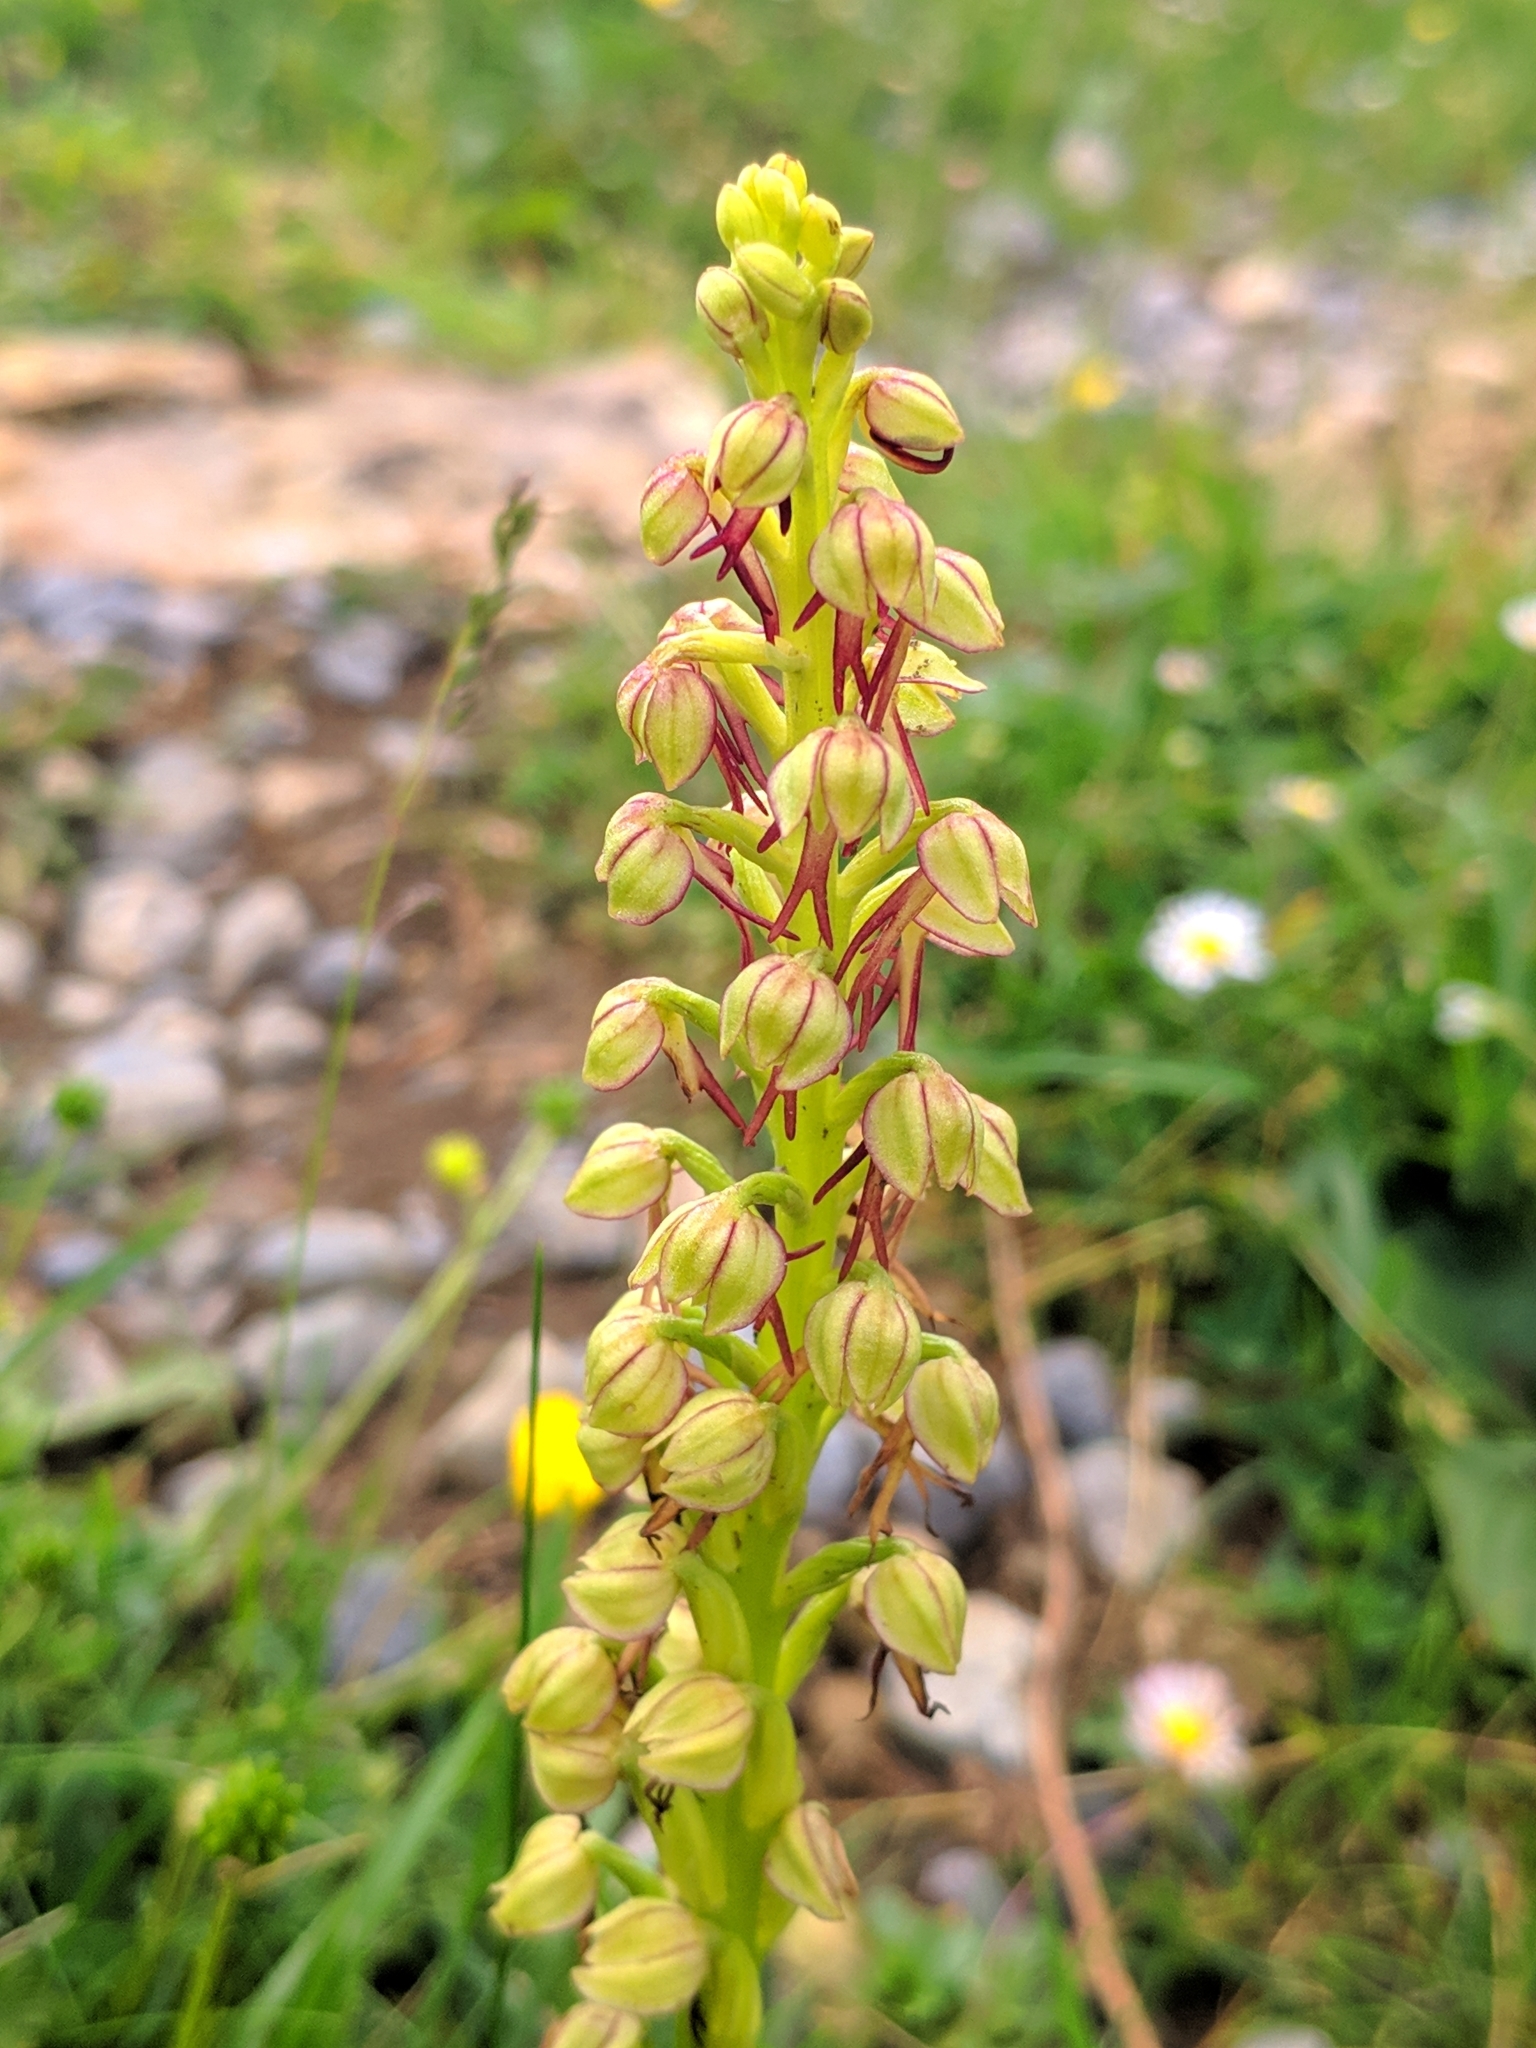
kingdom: Plantae
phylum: Tracheophyta
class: Liliopsida
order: Asparagales
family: Orchidaceae
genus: Orchis
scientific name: Orchis anthropophora
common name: Man orchid
